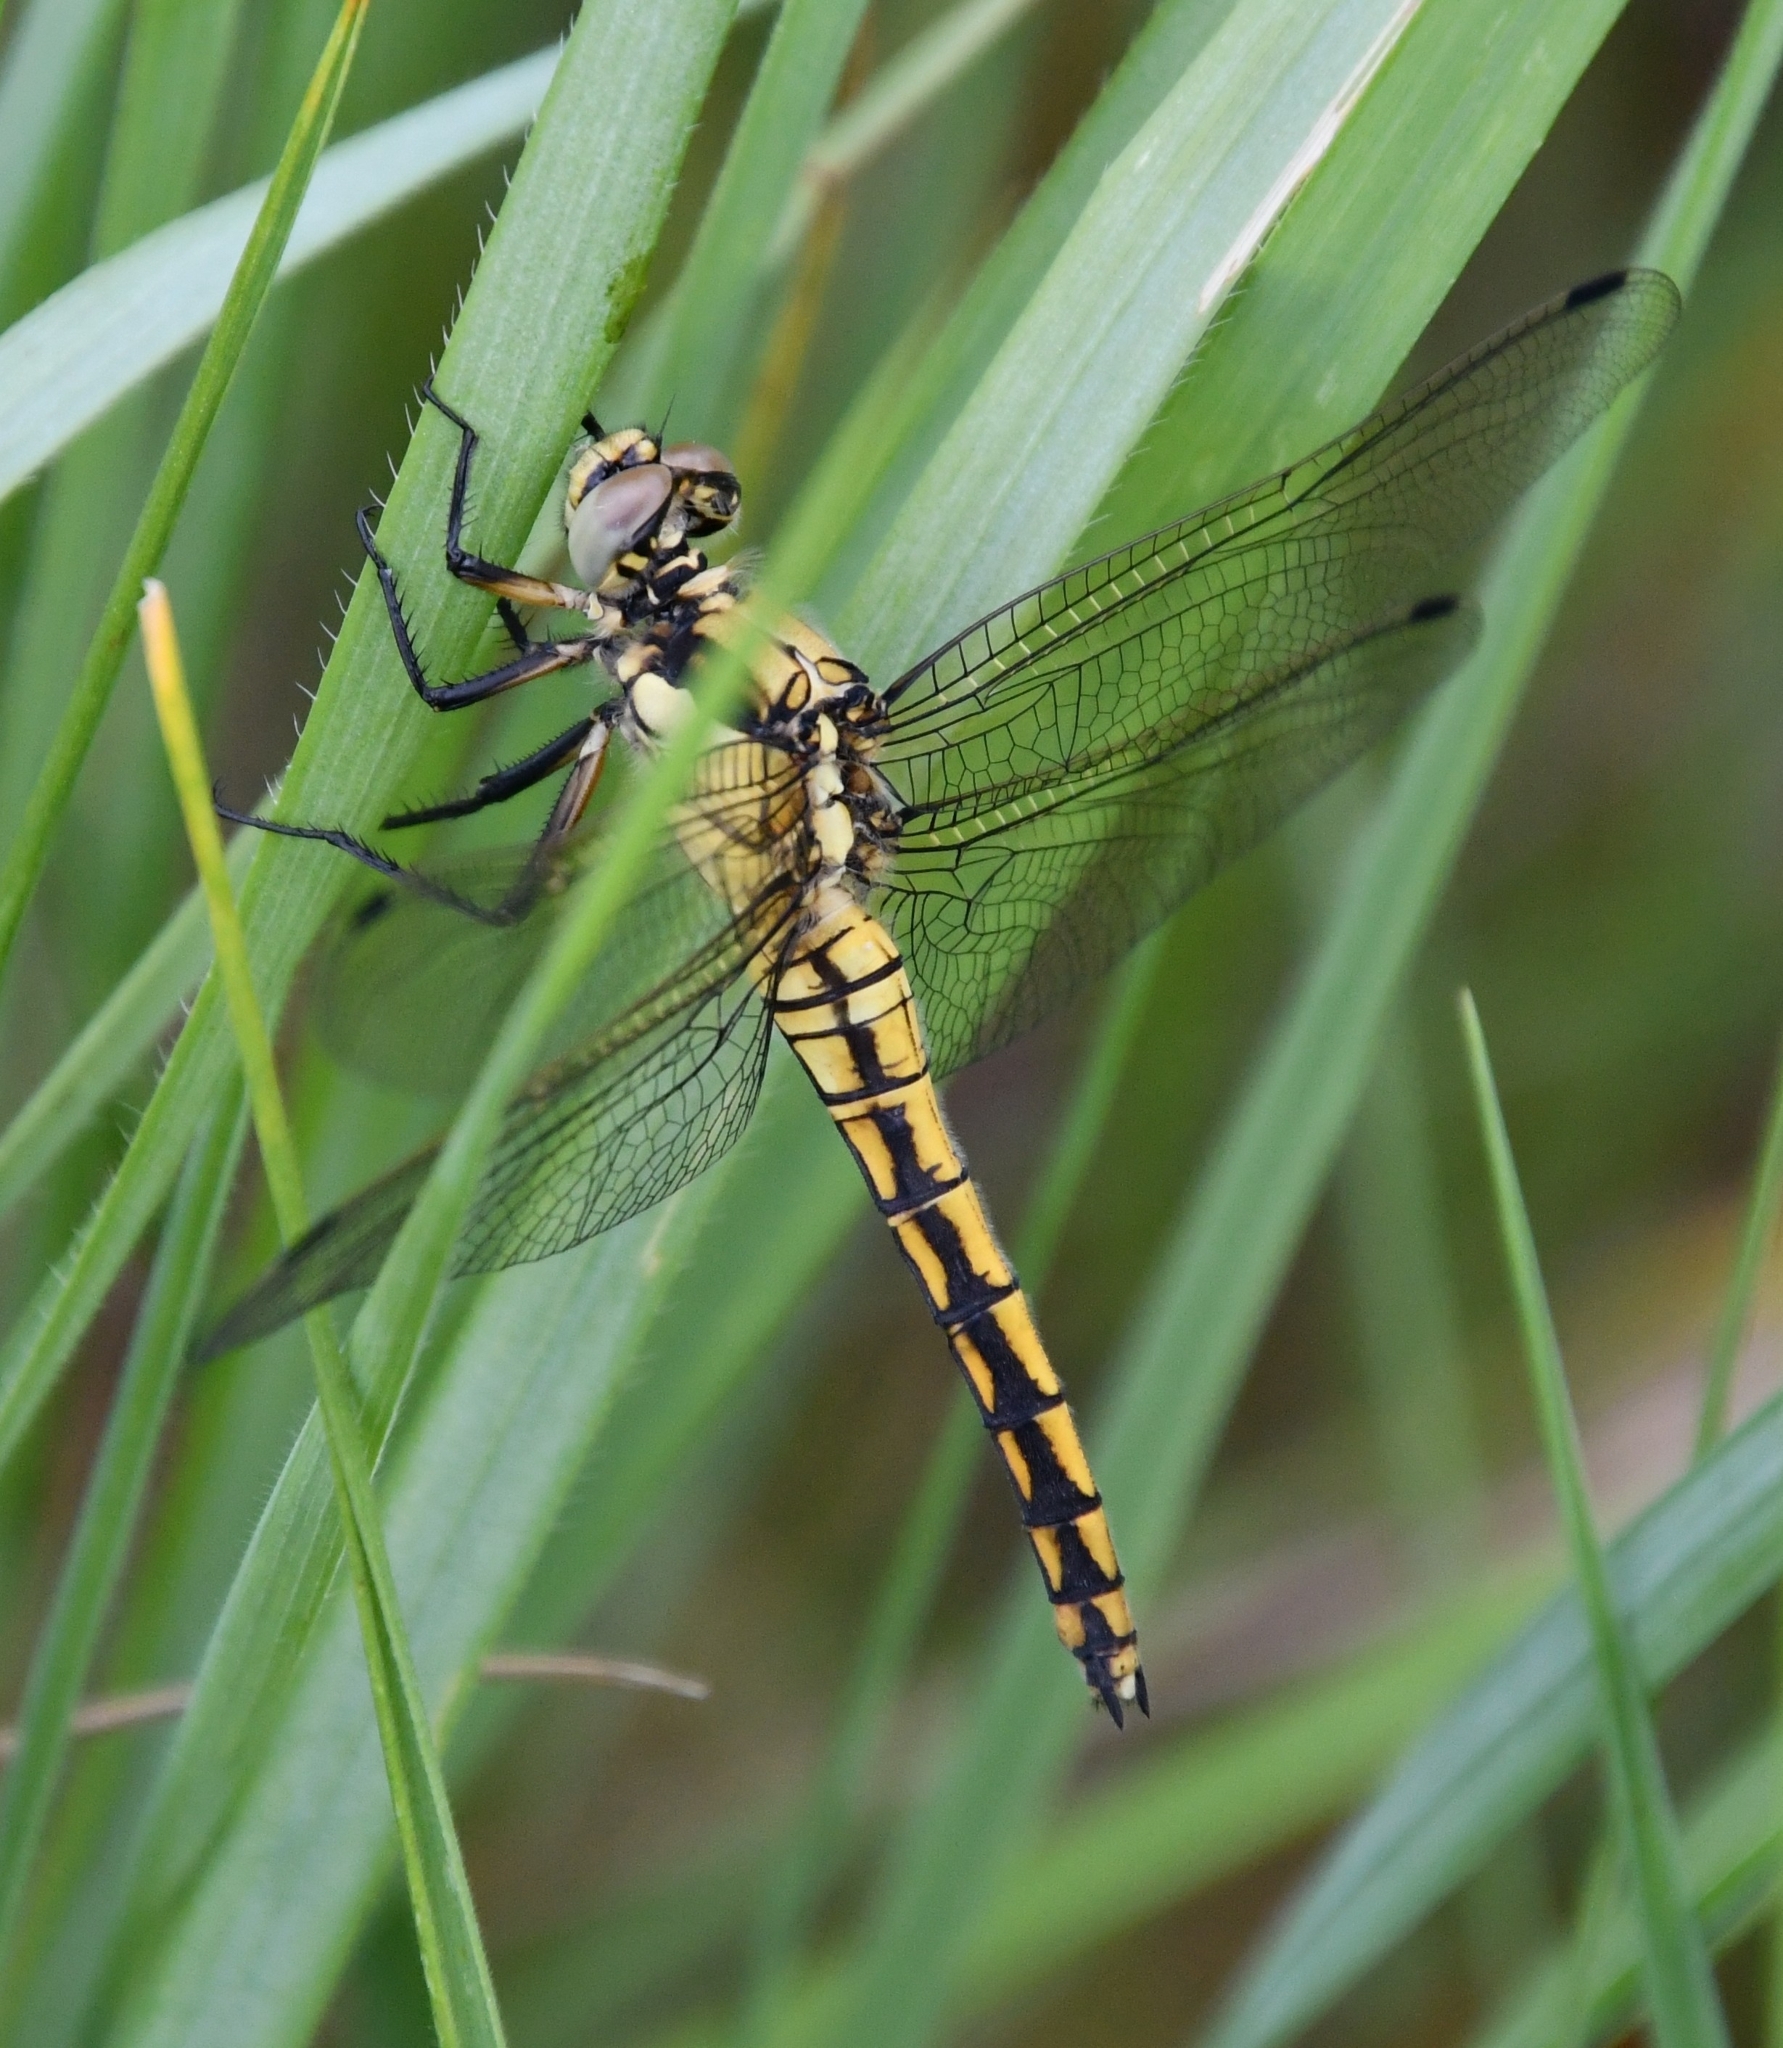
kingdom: Animalia
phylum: Arthropoda
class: Insecta
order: Odonata
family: Libellulidae
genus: Orthetrum
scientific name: Orthetrum cancellatum
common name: Black-tailed skimmer
